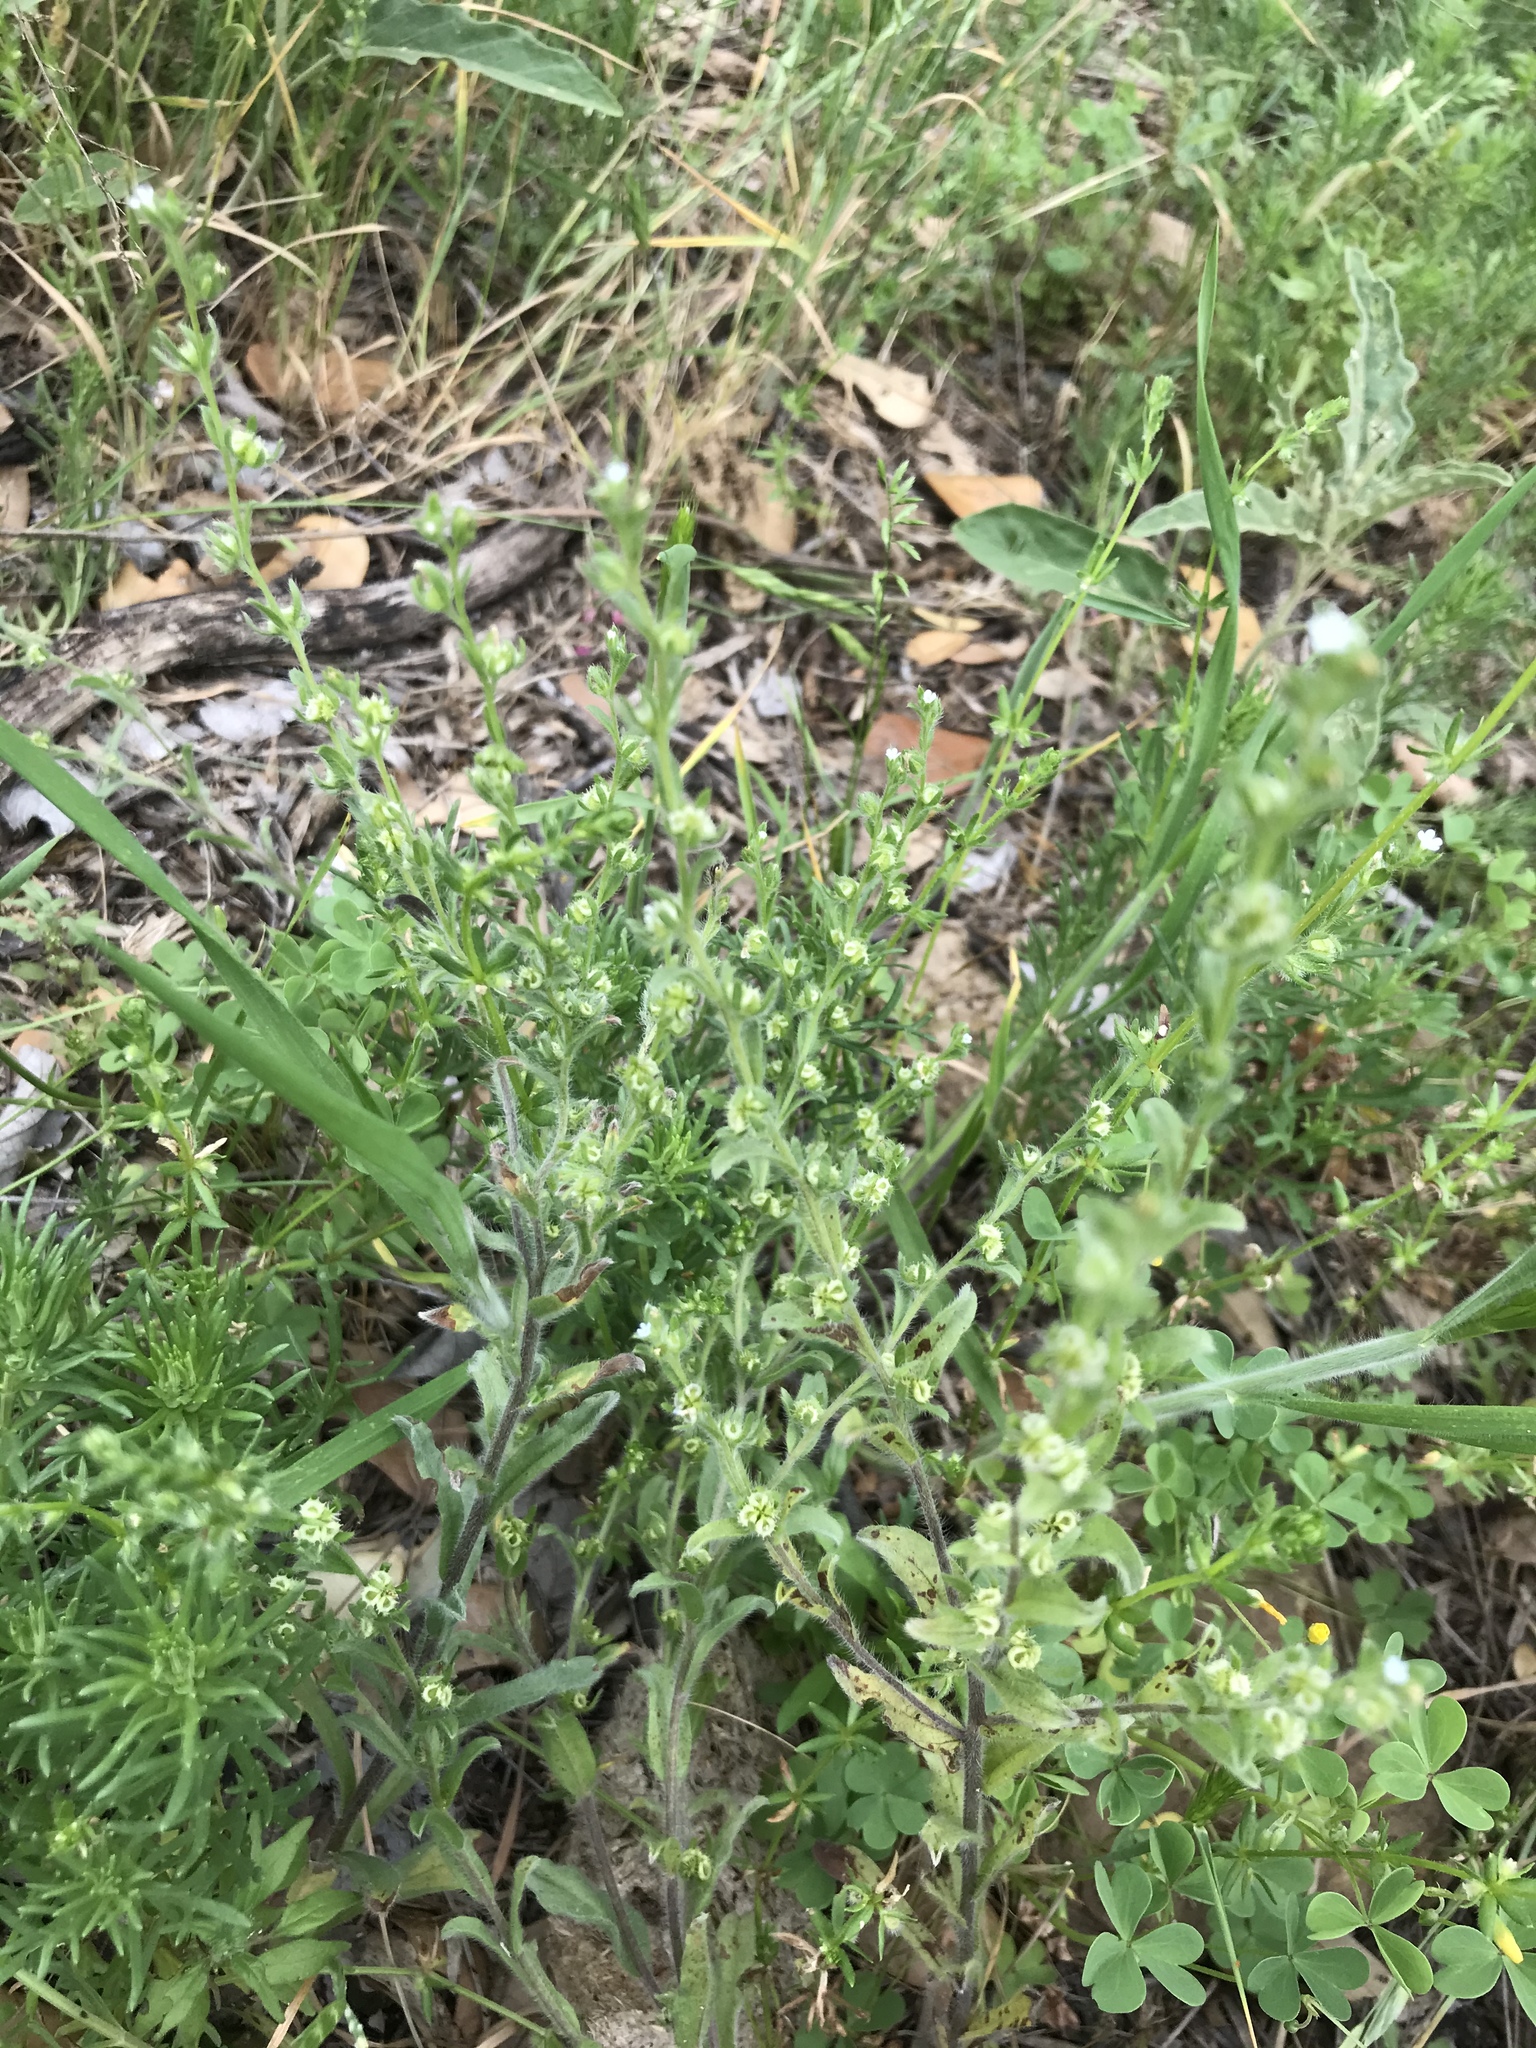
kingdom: Plantae
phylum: Tracheophyta
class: Magnoliopsida
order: Boraginales
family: Boraginaceae
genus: Lappula
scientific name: Lappula occidentalis
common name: Western stickseed
